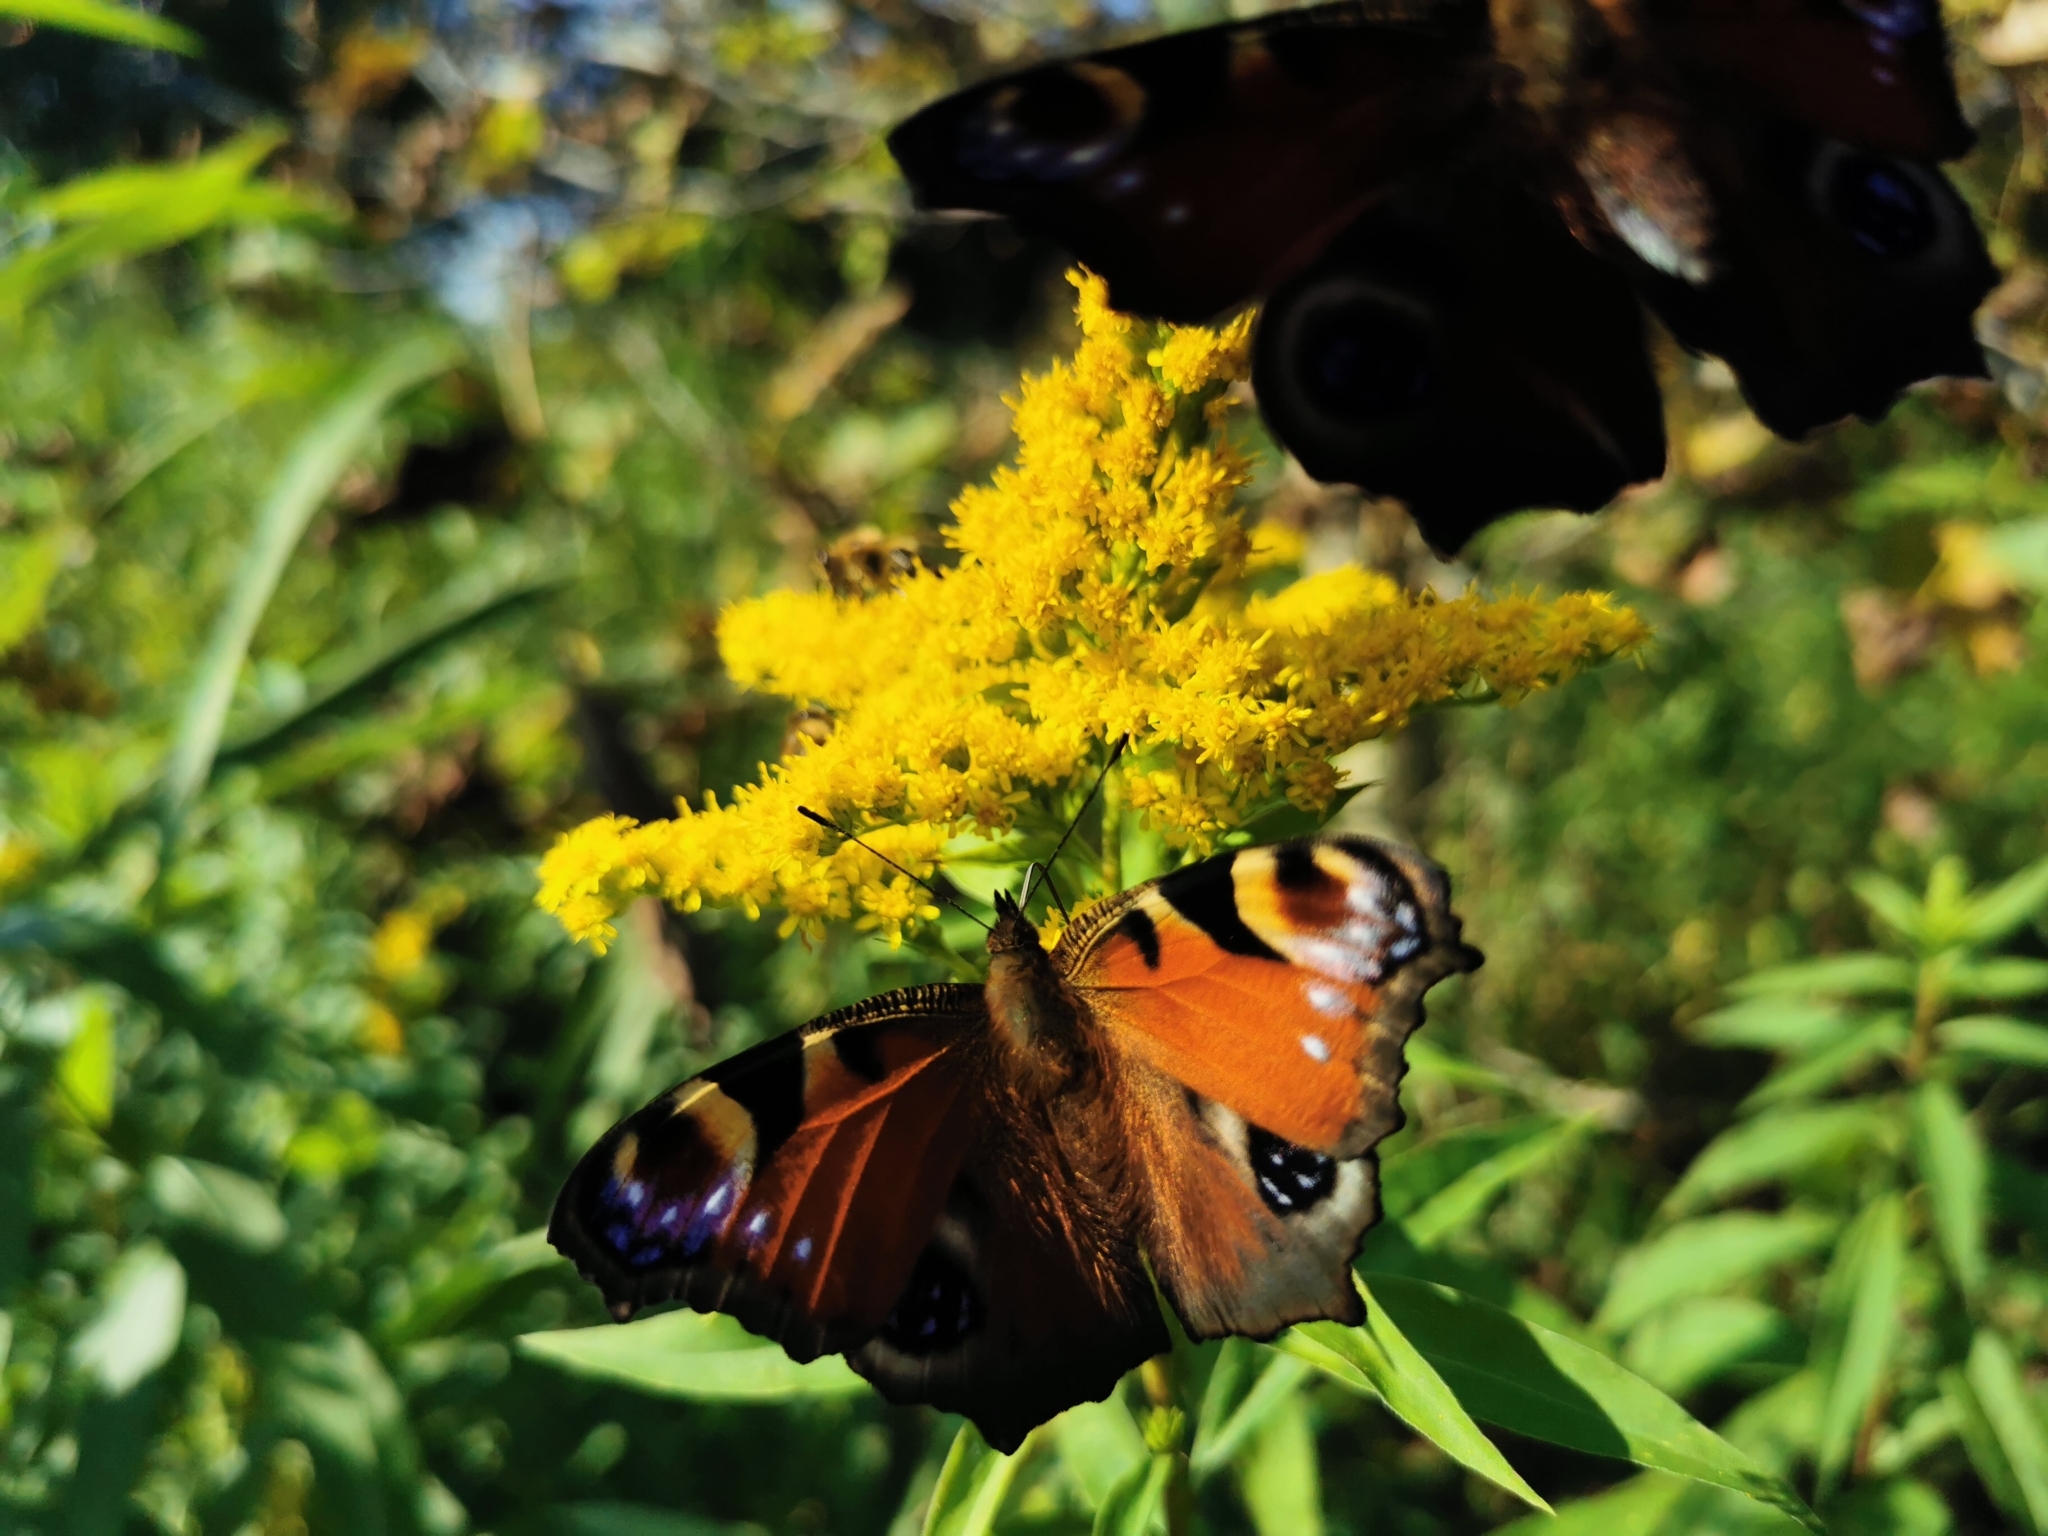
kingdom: Animalia
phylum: Arthropoda
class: Insecta
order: Lepidoptera
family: Nymphalidae
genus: Aglais
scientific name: Aglais io
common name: Peacock
